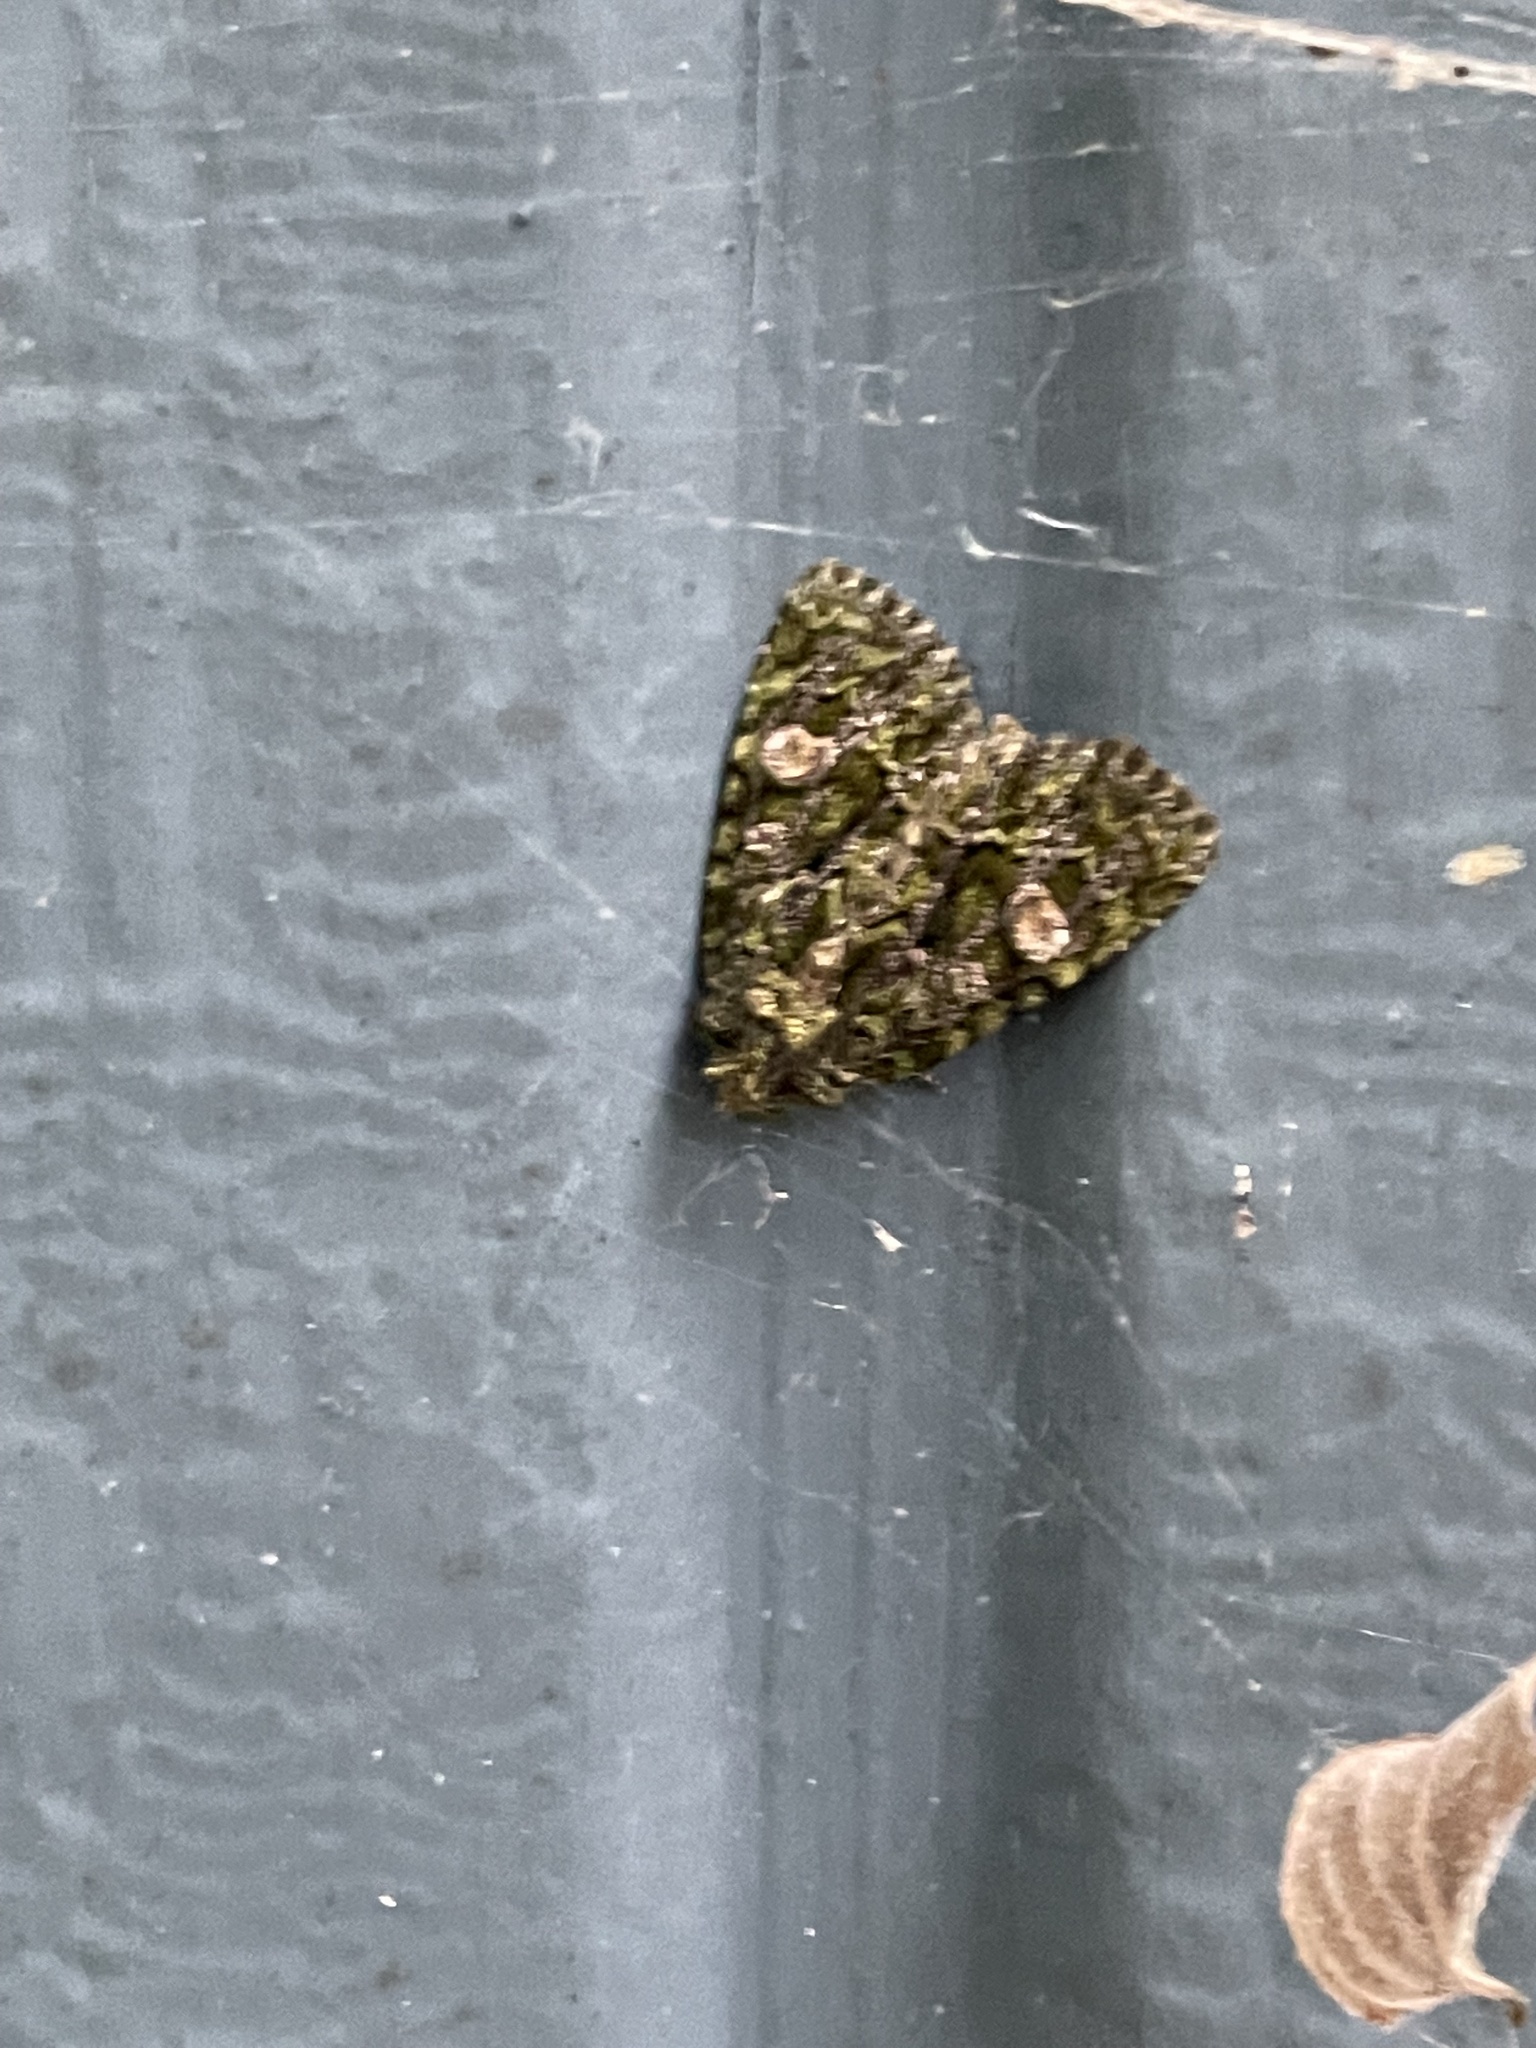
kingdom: Animalia
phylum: Arthropoda
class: Insecta
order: Lepidoptera
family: Noctuidae
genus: Phosphila
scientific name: Phosphila miselioides
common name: Spotted phosphila moth
